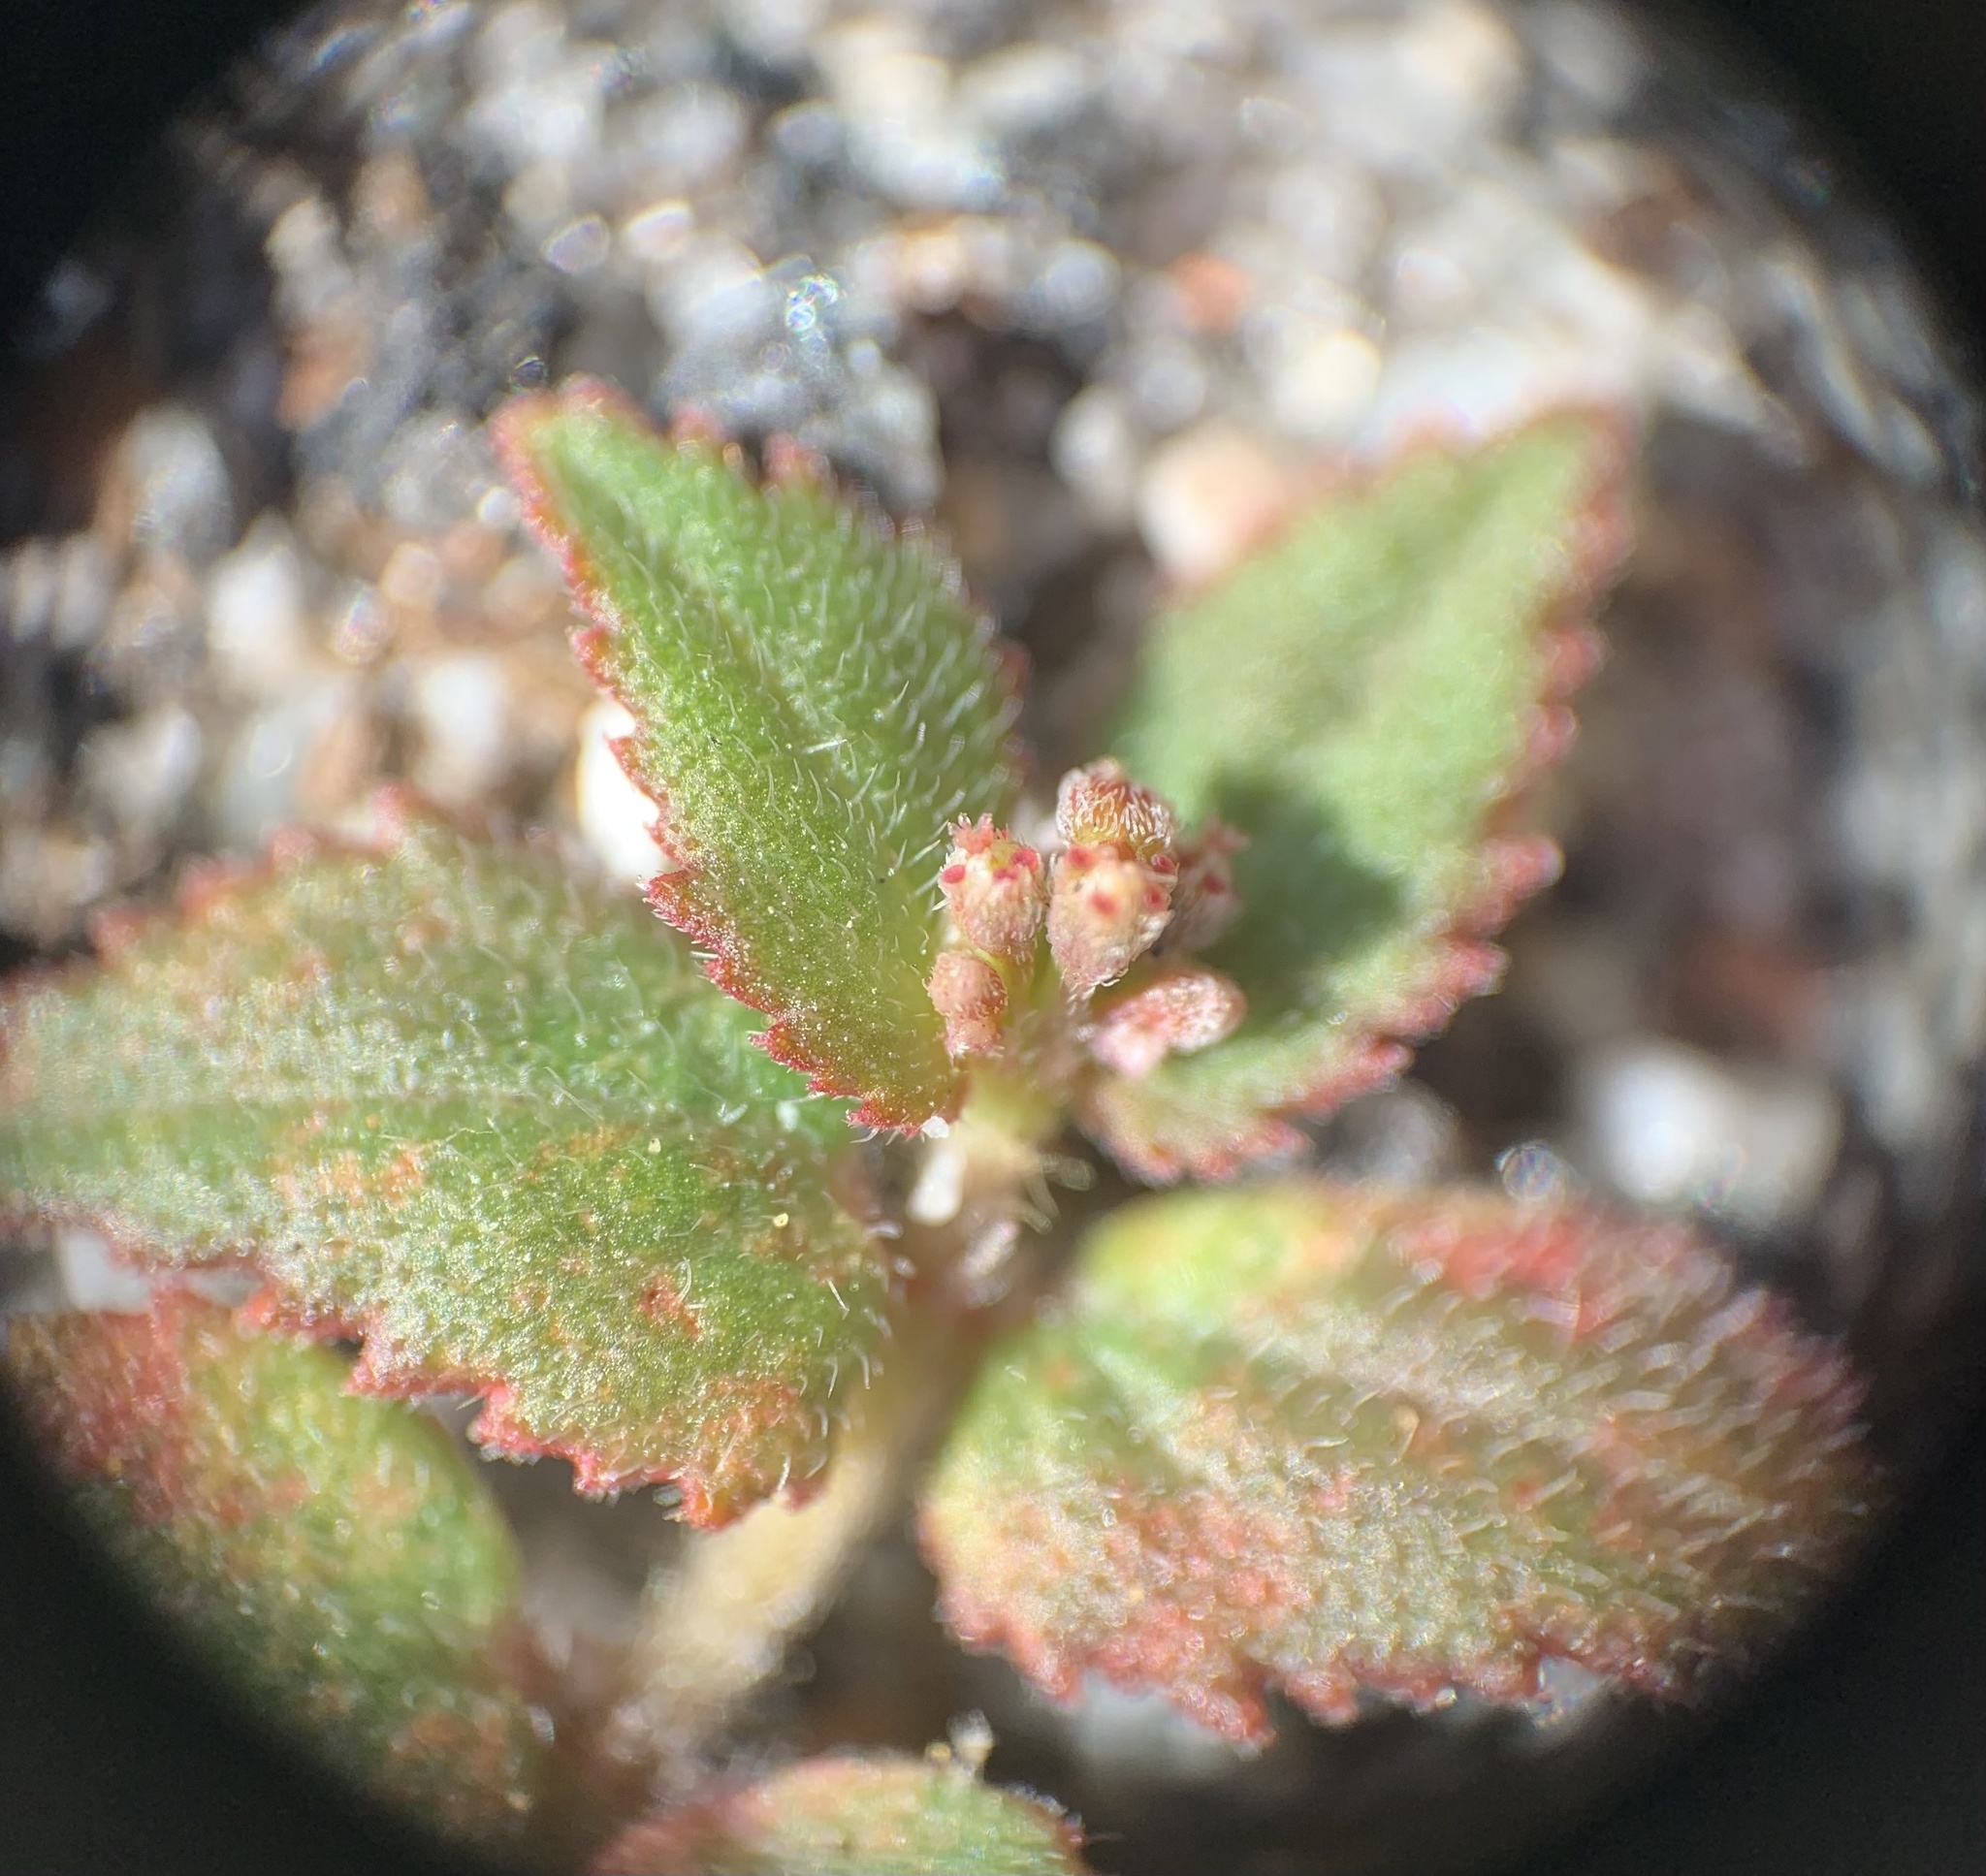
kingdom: Plantae
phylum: Tracheophyta
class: Magnoliopsida
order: Malpighiales
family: Euphorbiaceae
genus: Euphorbia
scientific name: Euphorbia ophthalmica
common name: Florida hammock sandmat
